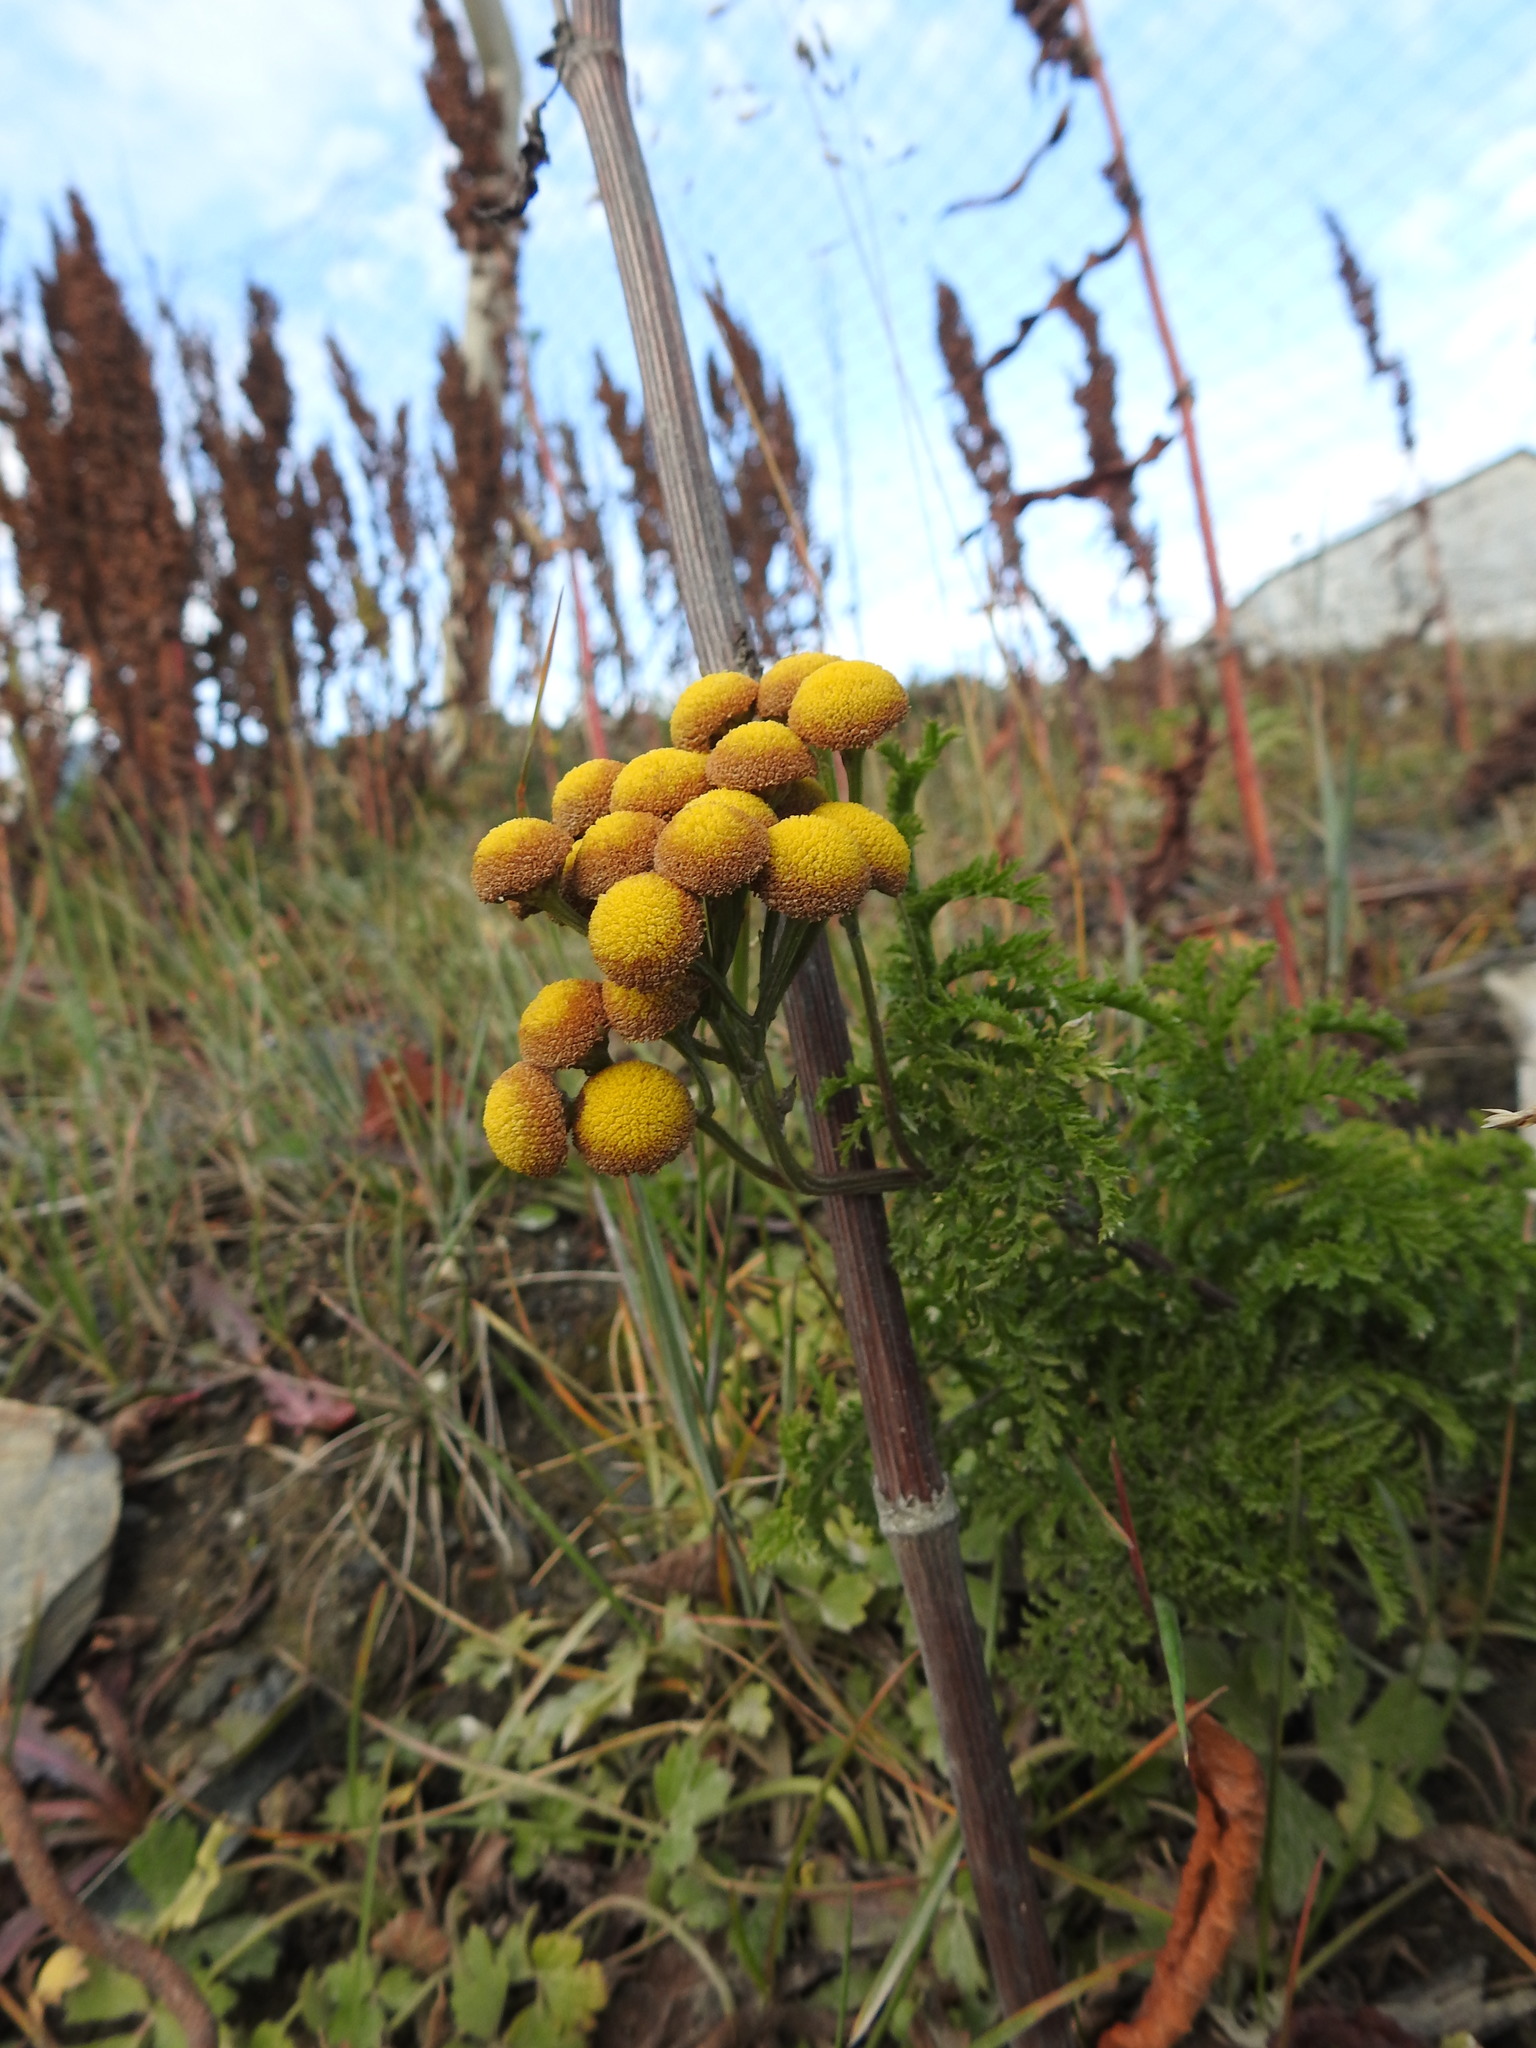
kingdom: Plantae
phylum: Tracheophyta
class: Magnoliopsida
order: Asterales
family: Asteraceae
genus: Tanacetum
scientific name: Tanacetum vulgare
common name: Common tansy
